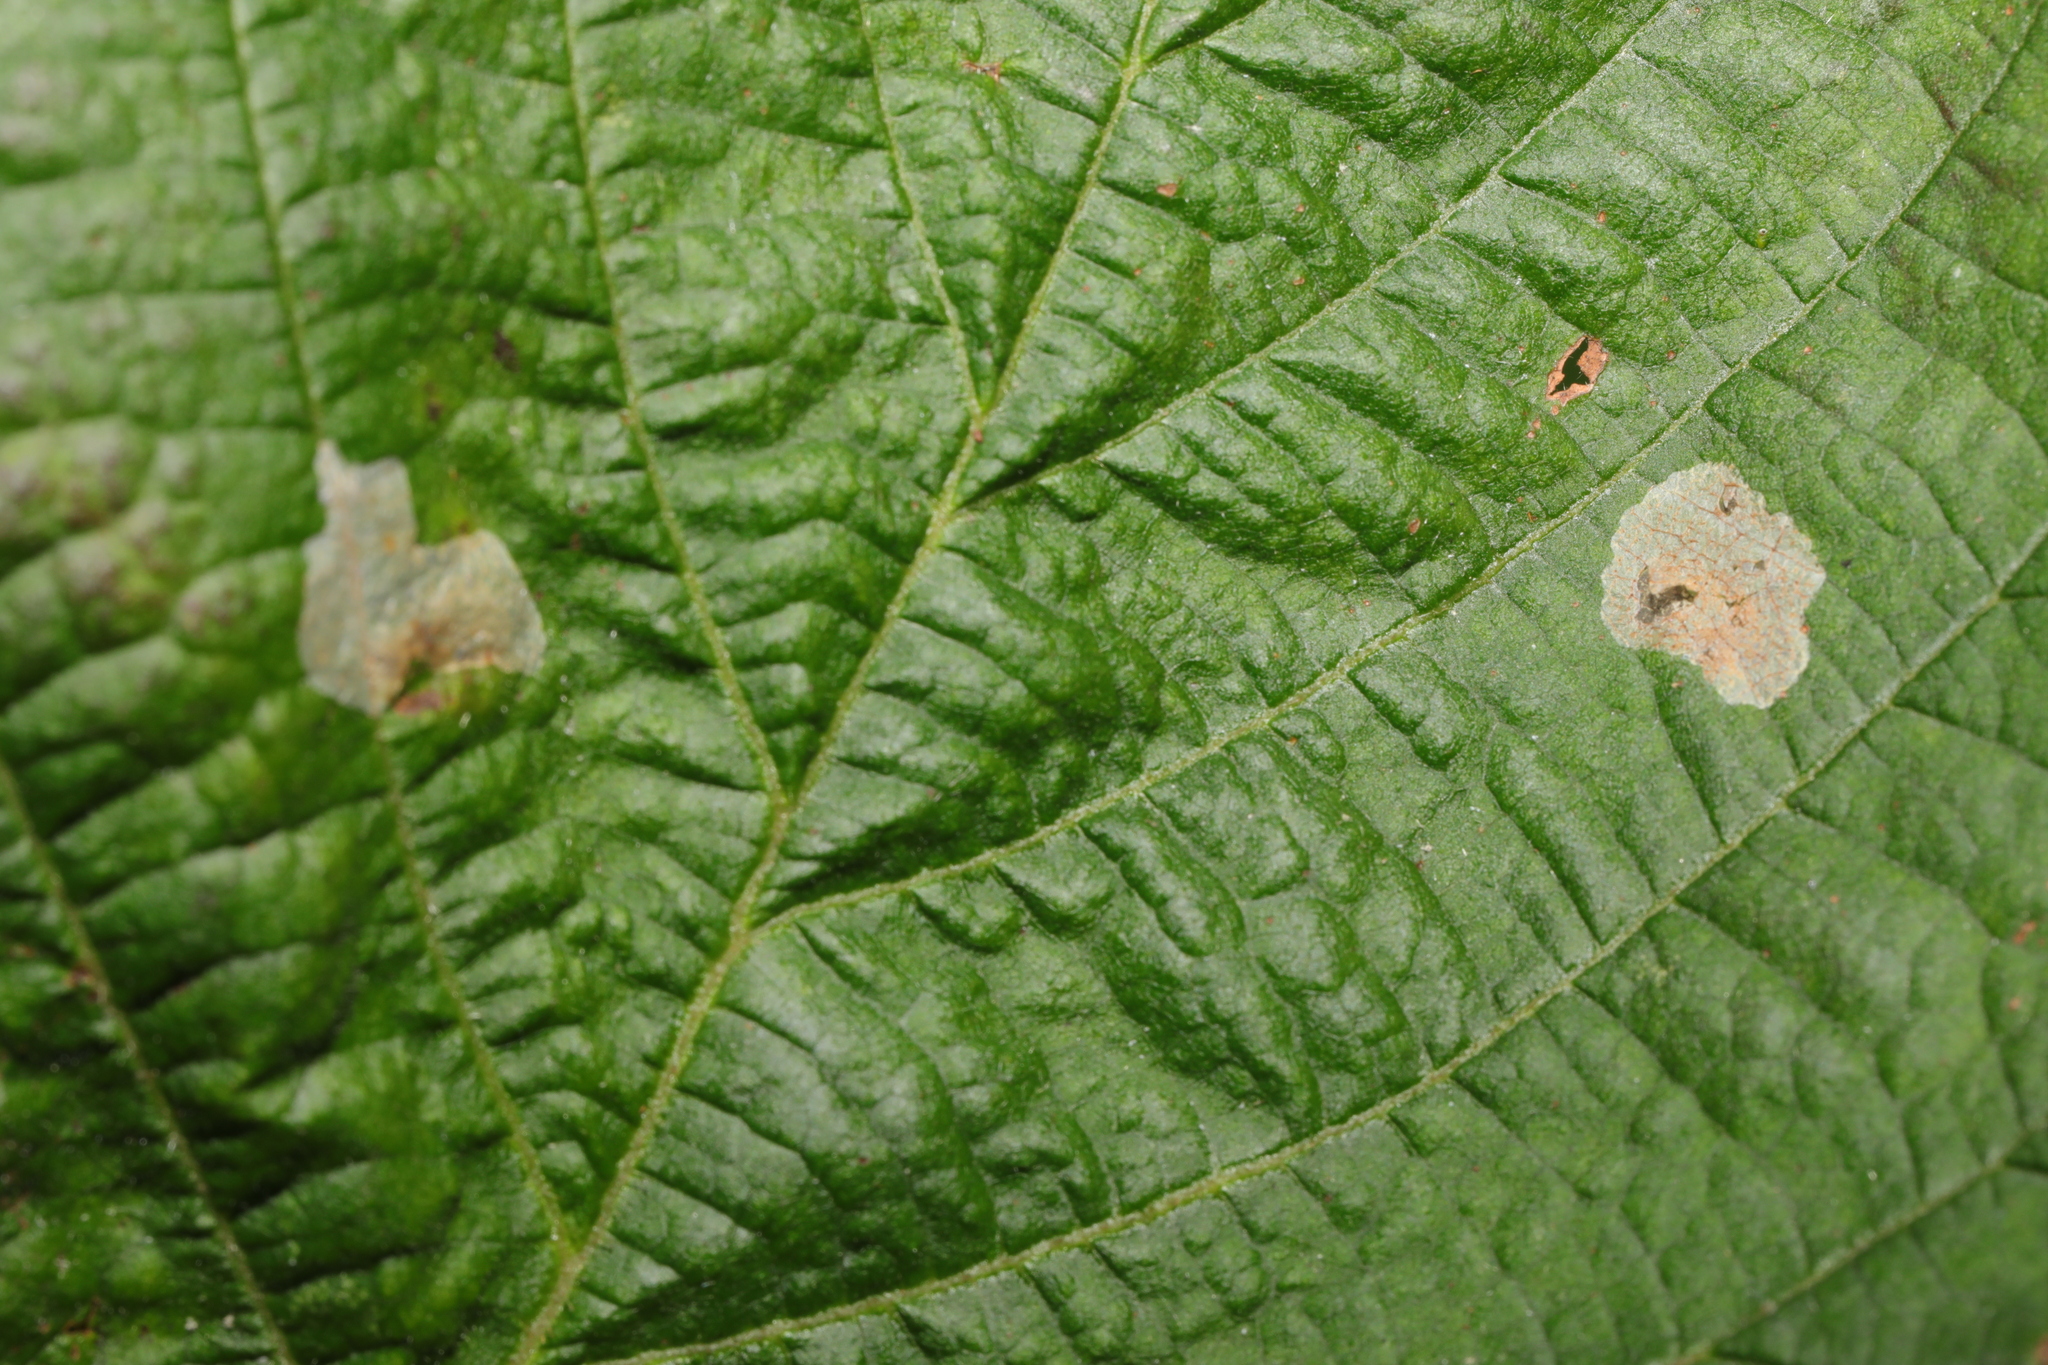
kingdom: Animalia
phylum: Arthropoda
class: Insecta
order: Lepidoptera
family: Gracillariidae
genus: Phyllonorycter
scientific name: Phyllonorycter coryli
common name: Nut-leaf blister moth
